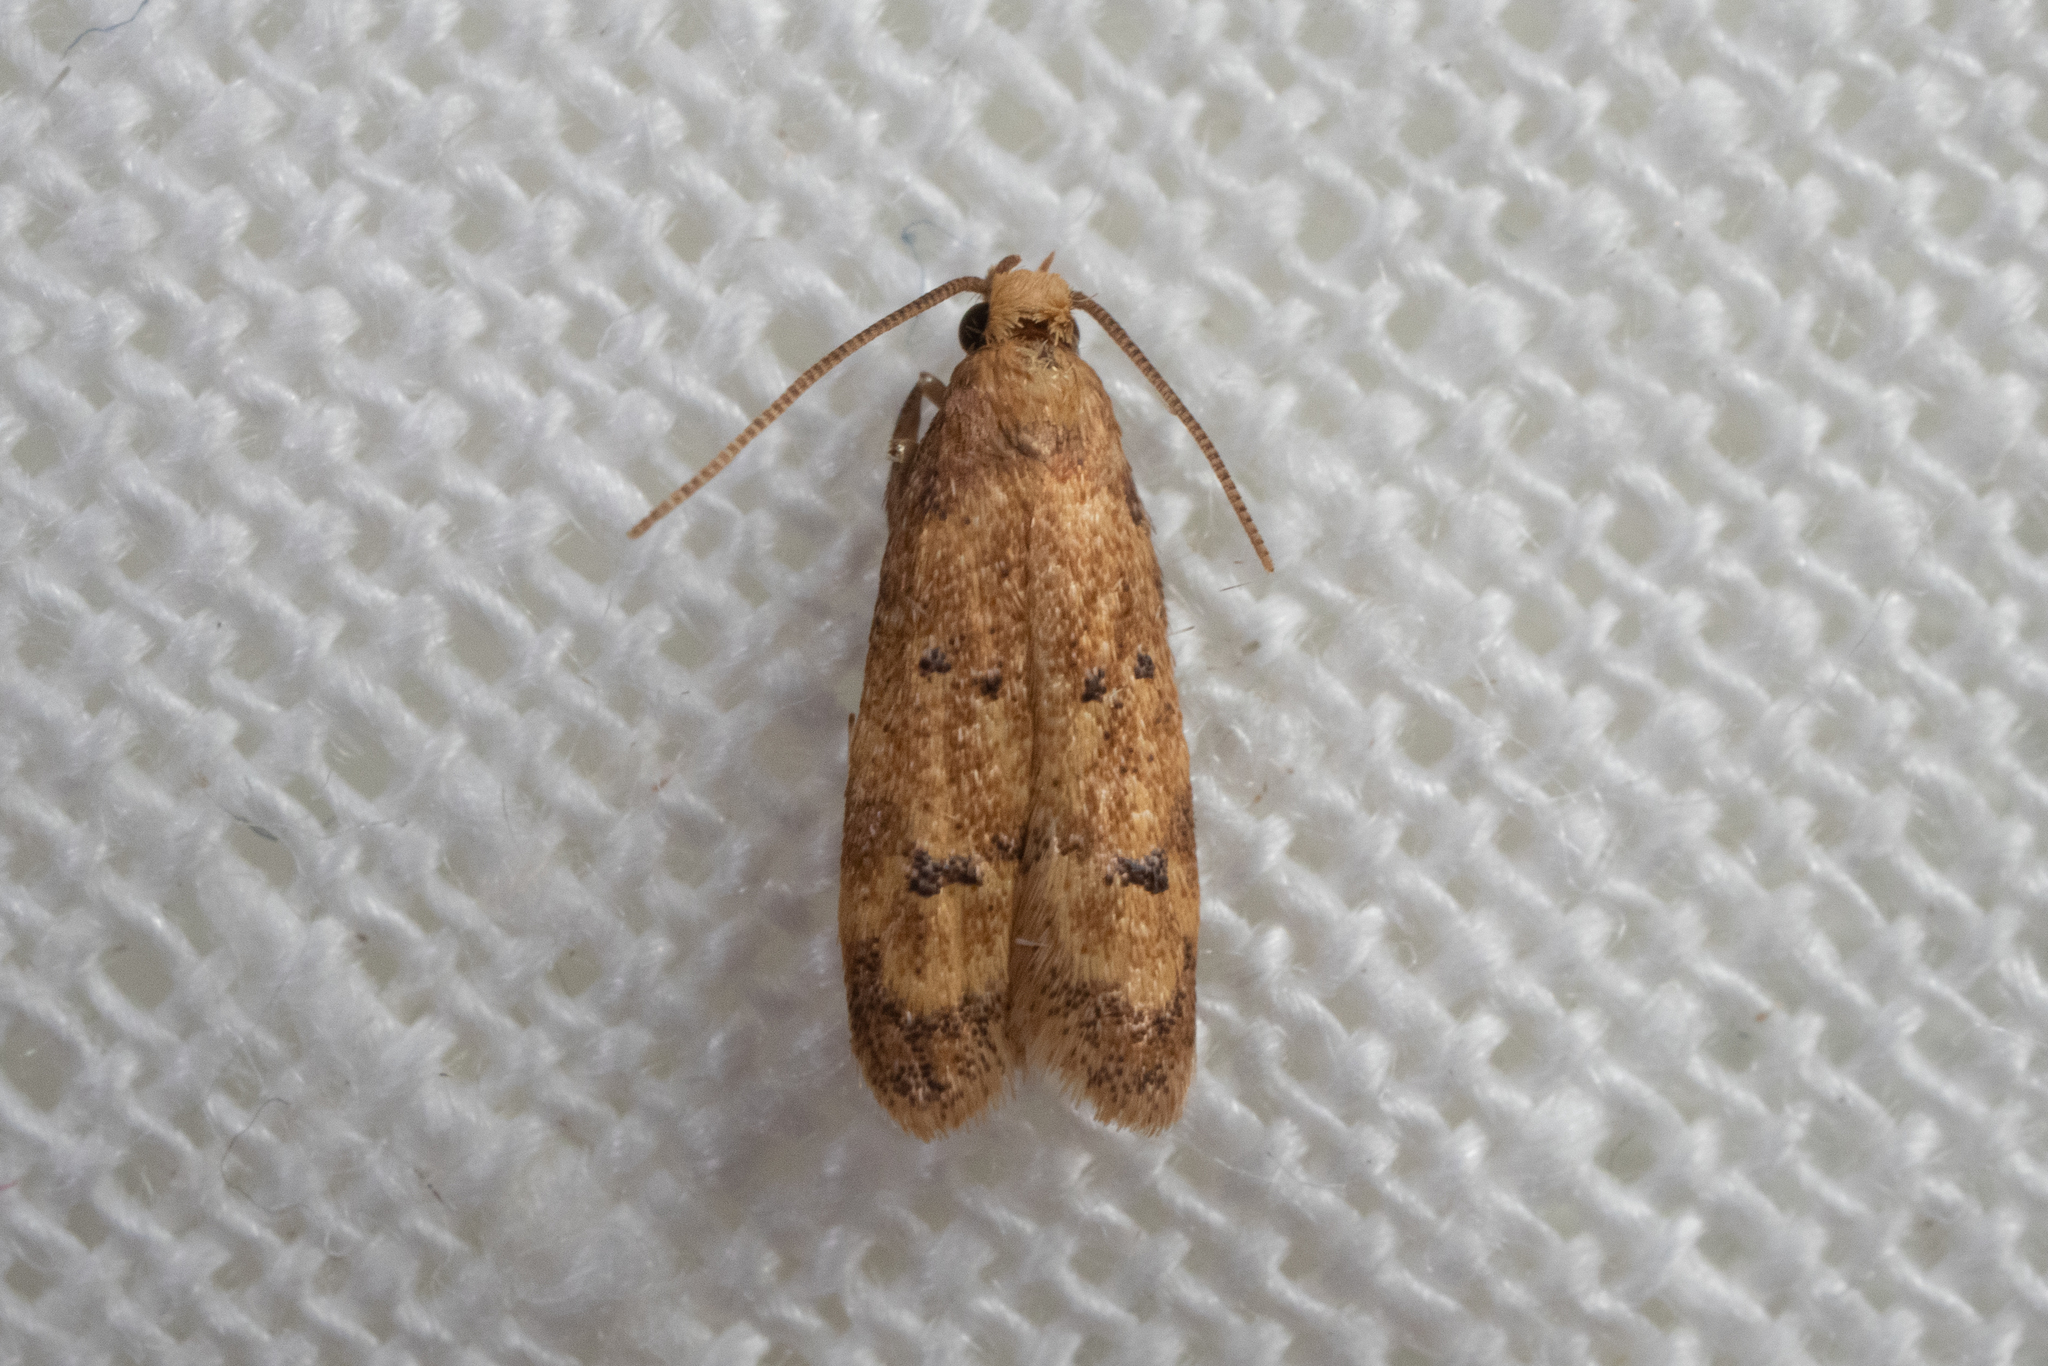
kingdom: Animalia
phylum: Arthropoda
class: Insecta
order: Lepidoptera
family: Autostichidae
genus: Gerdana
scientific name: Gerdana caritella
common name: Gerdana moth
